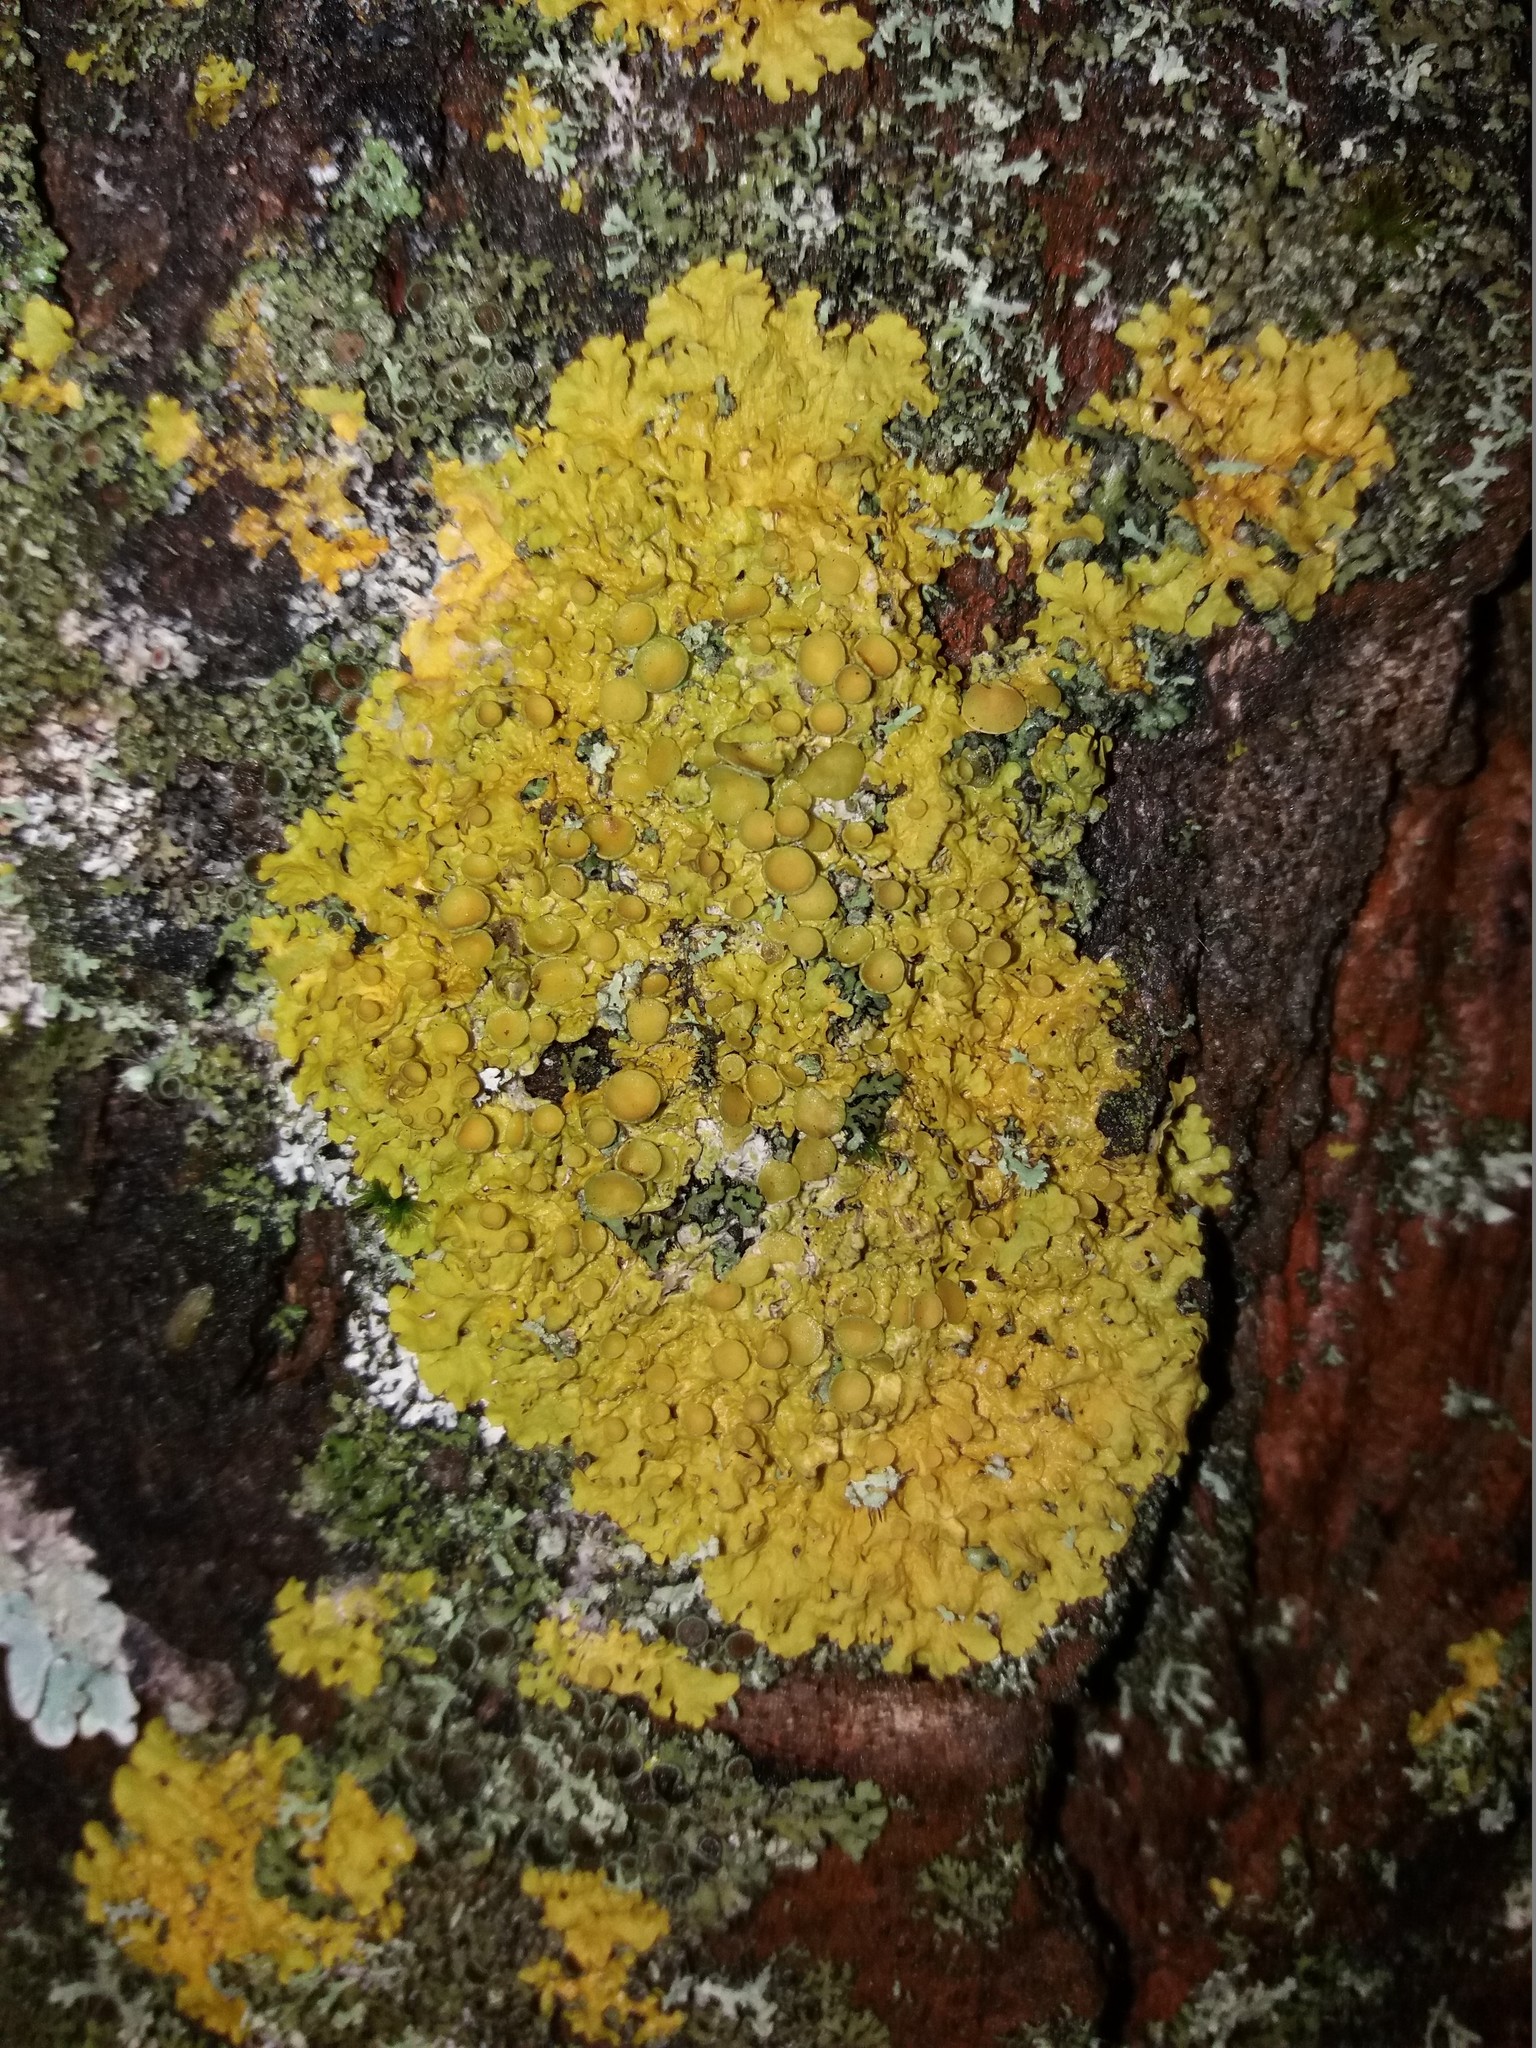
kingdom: Fungi
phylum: Ascomycota
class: Lecanoromycetes
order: Teloschistales
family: Teloschistaceae
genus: Xanthoria
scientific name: Xanthoria parietina
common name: Common orange lichen
